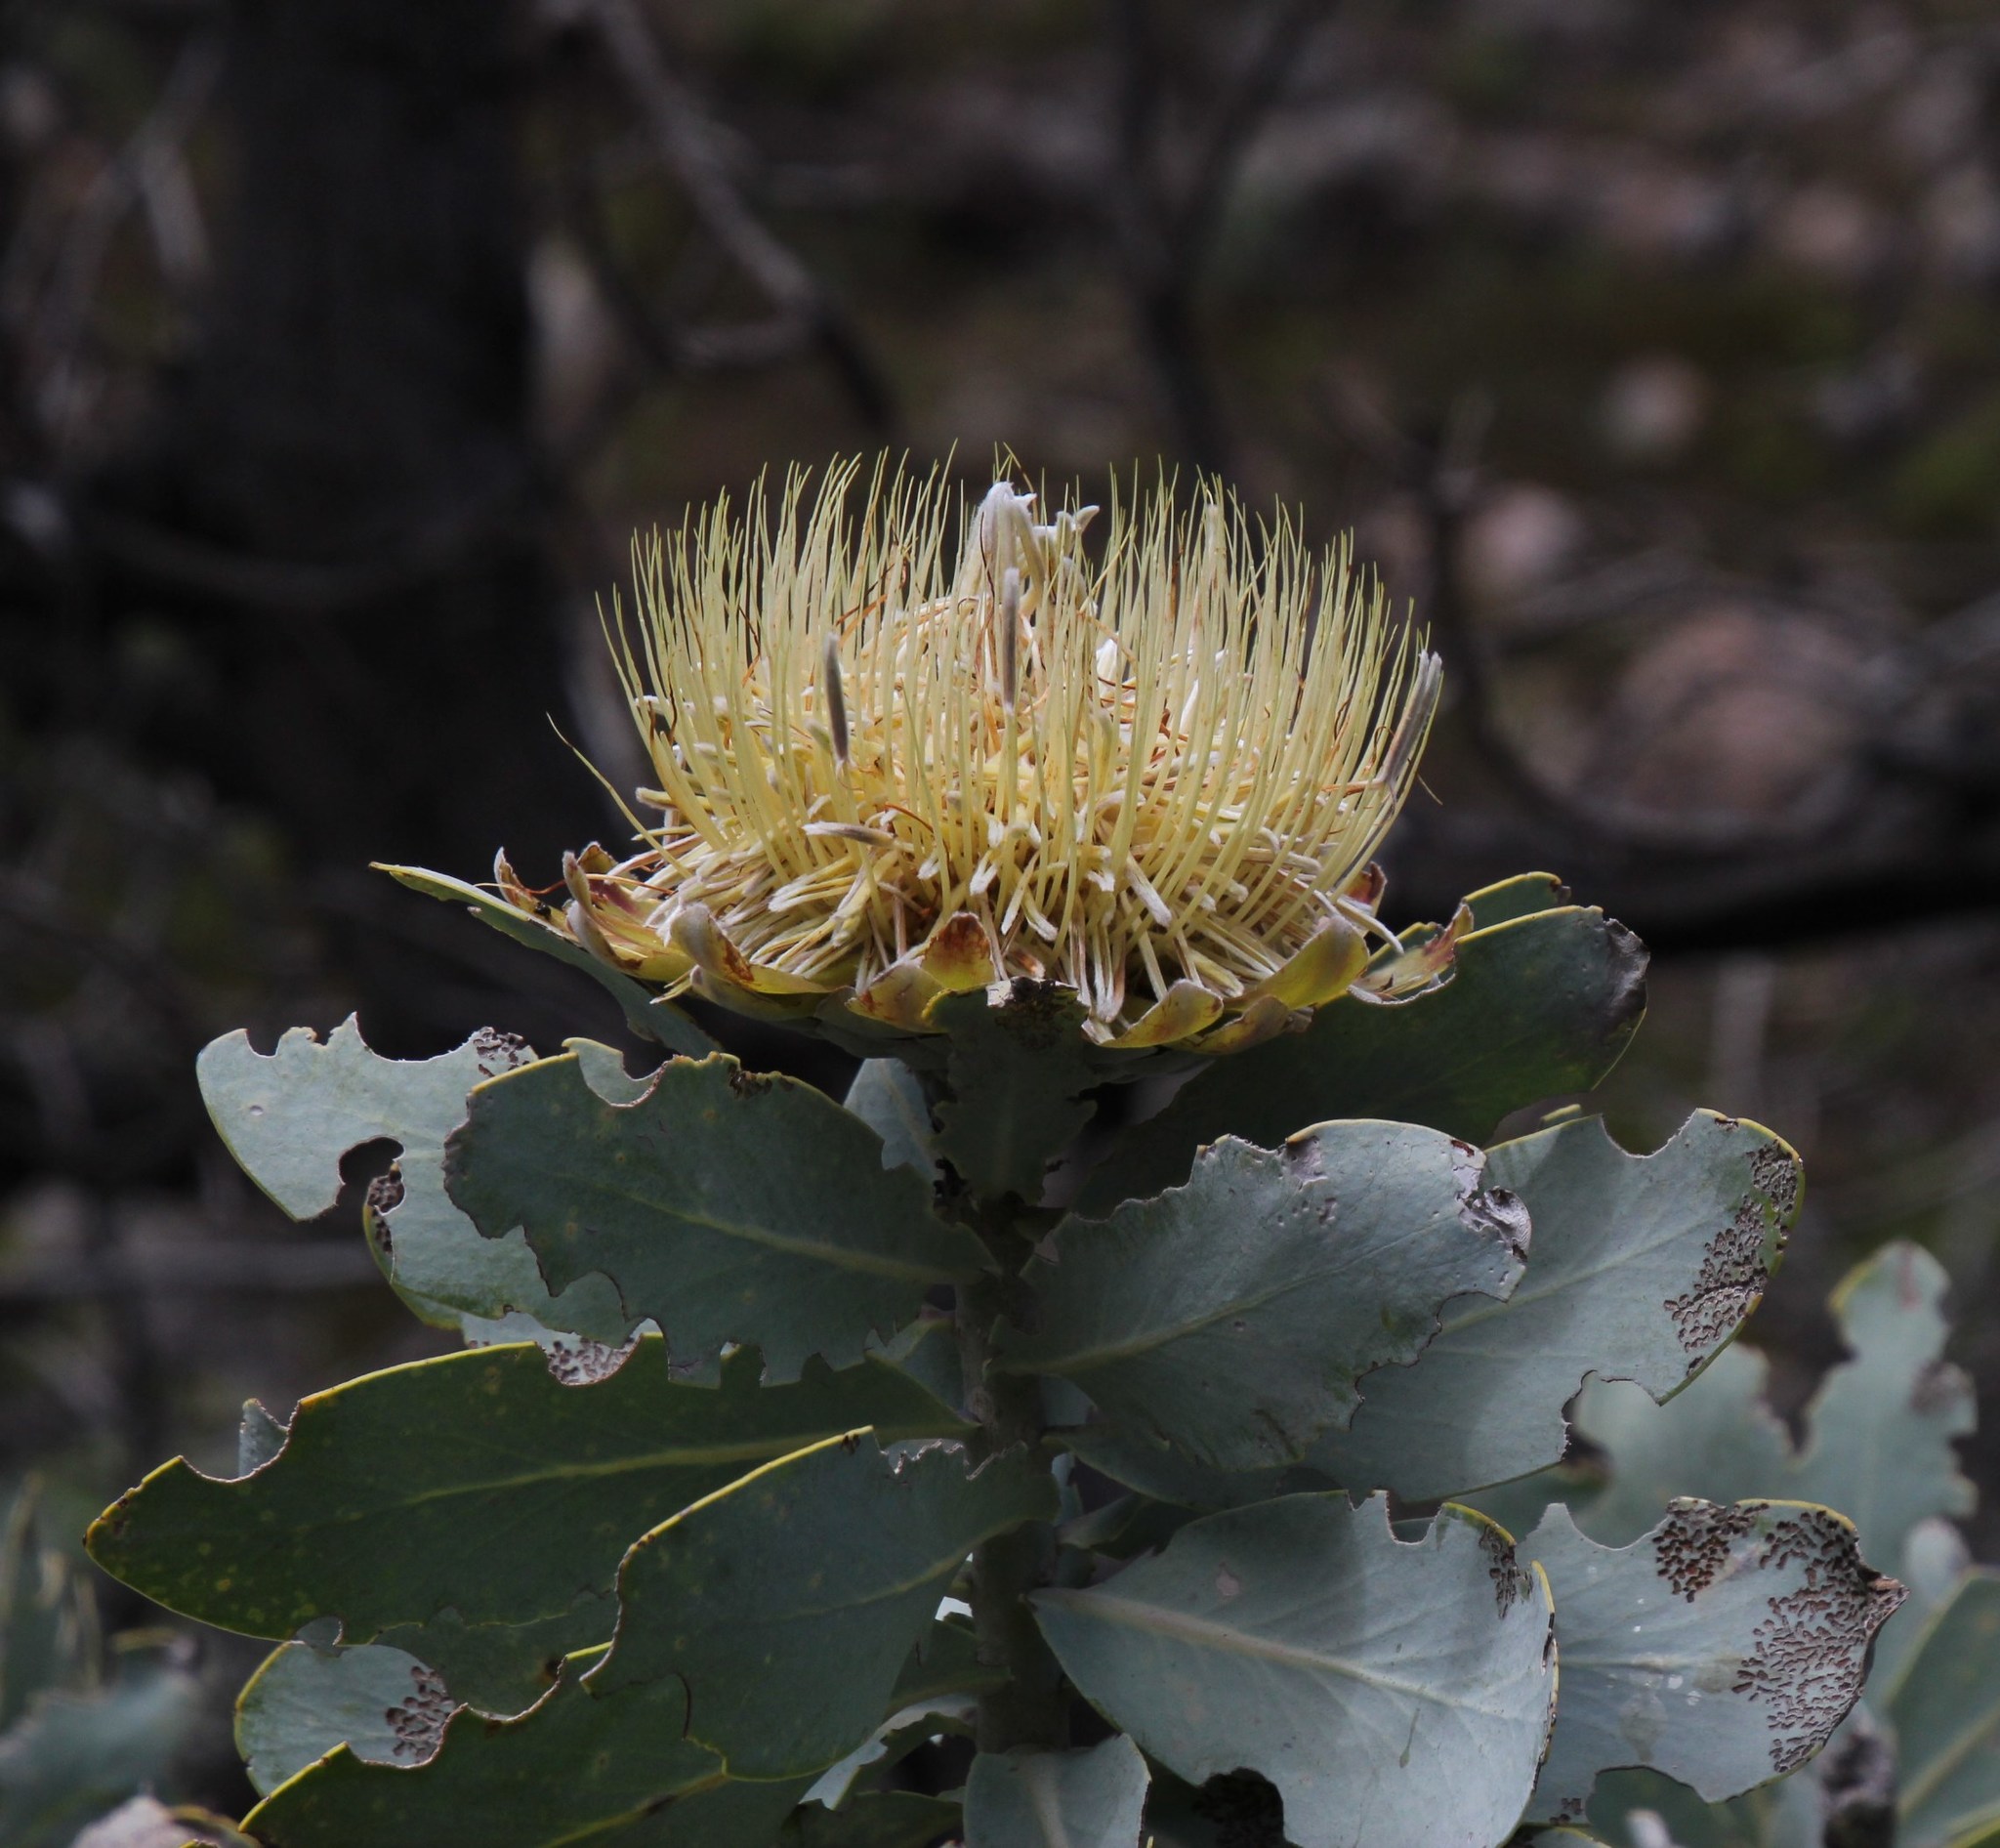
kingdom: Plantae
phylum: Tracheophyta
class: Magnoliopsida
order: Proteales
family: Proteaceae
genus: Protea
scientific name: Protea nitida
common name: Tree protea
